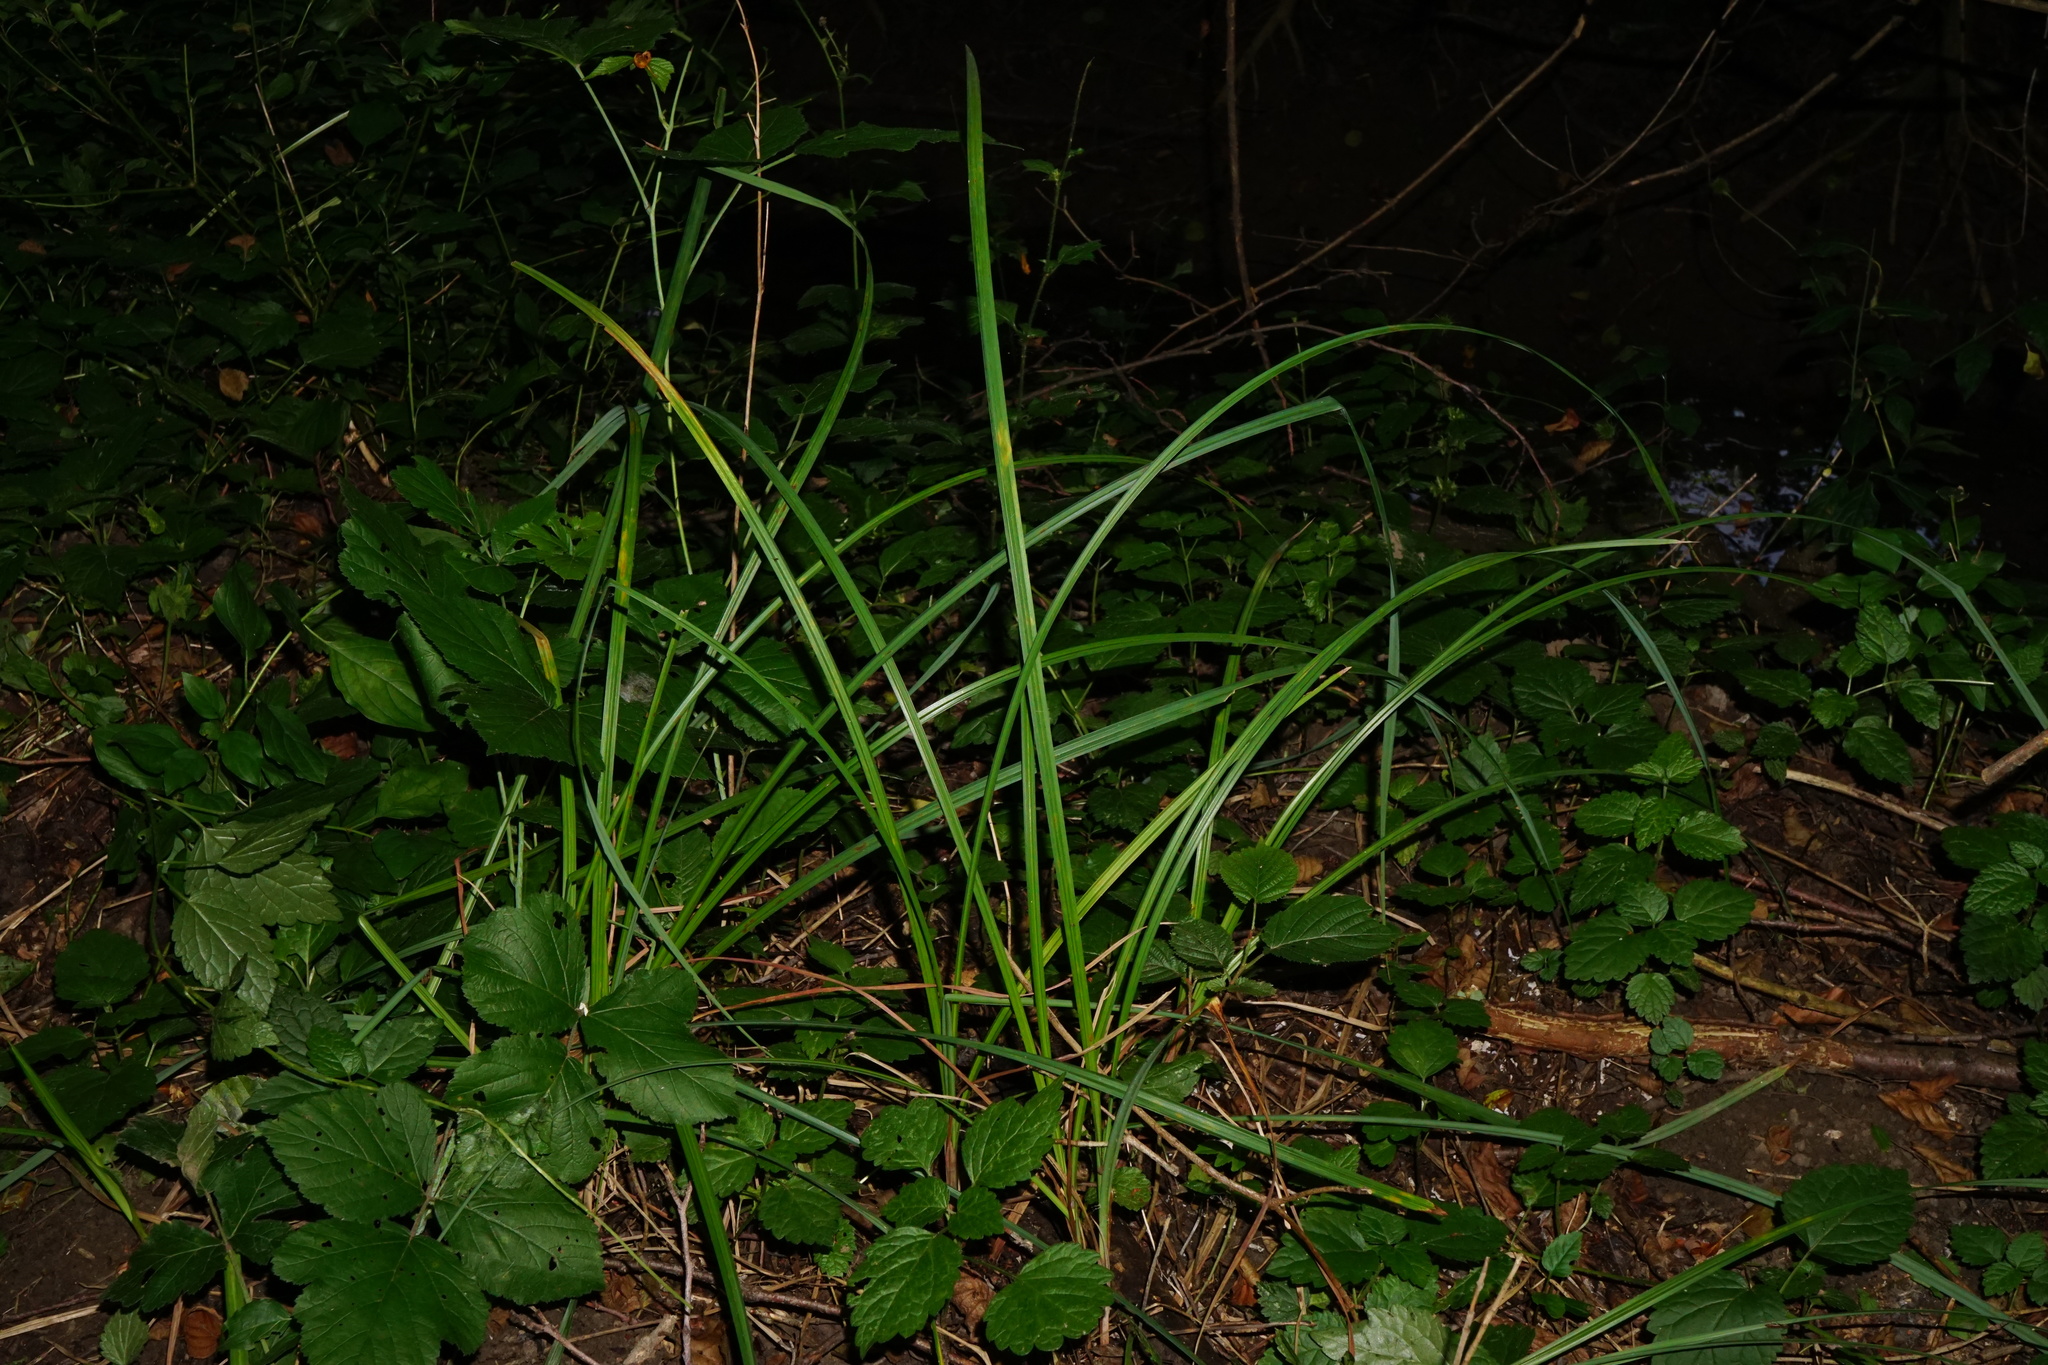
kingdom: Plantae
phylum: Tracheophyta
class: Liliopsida
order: Poales
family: Cyperaceae
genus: Carex
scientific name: Carex flacca
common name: Glaucous sedge
